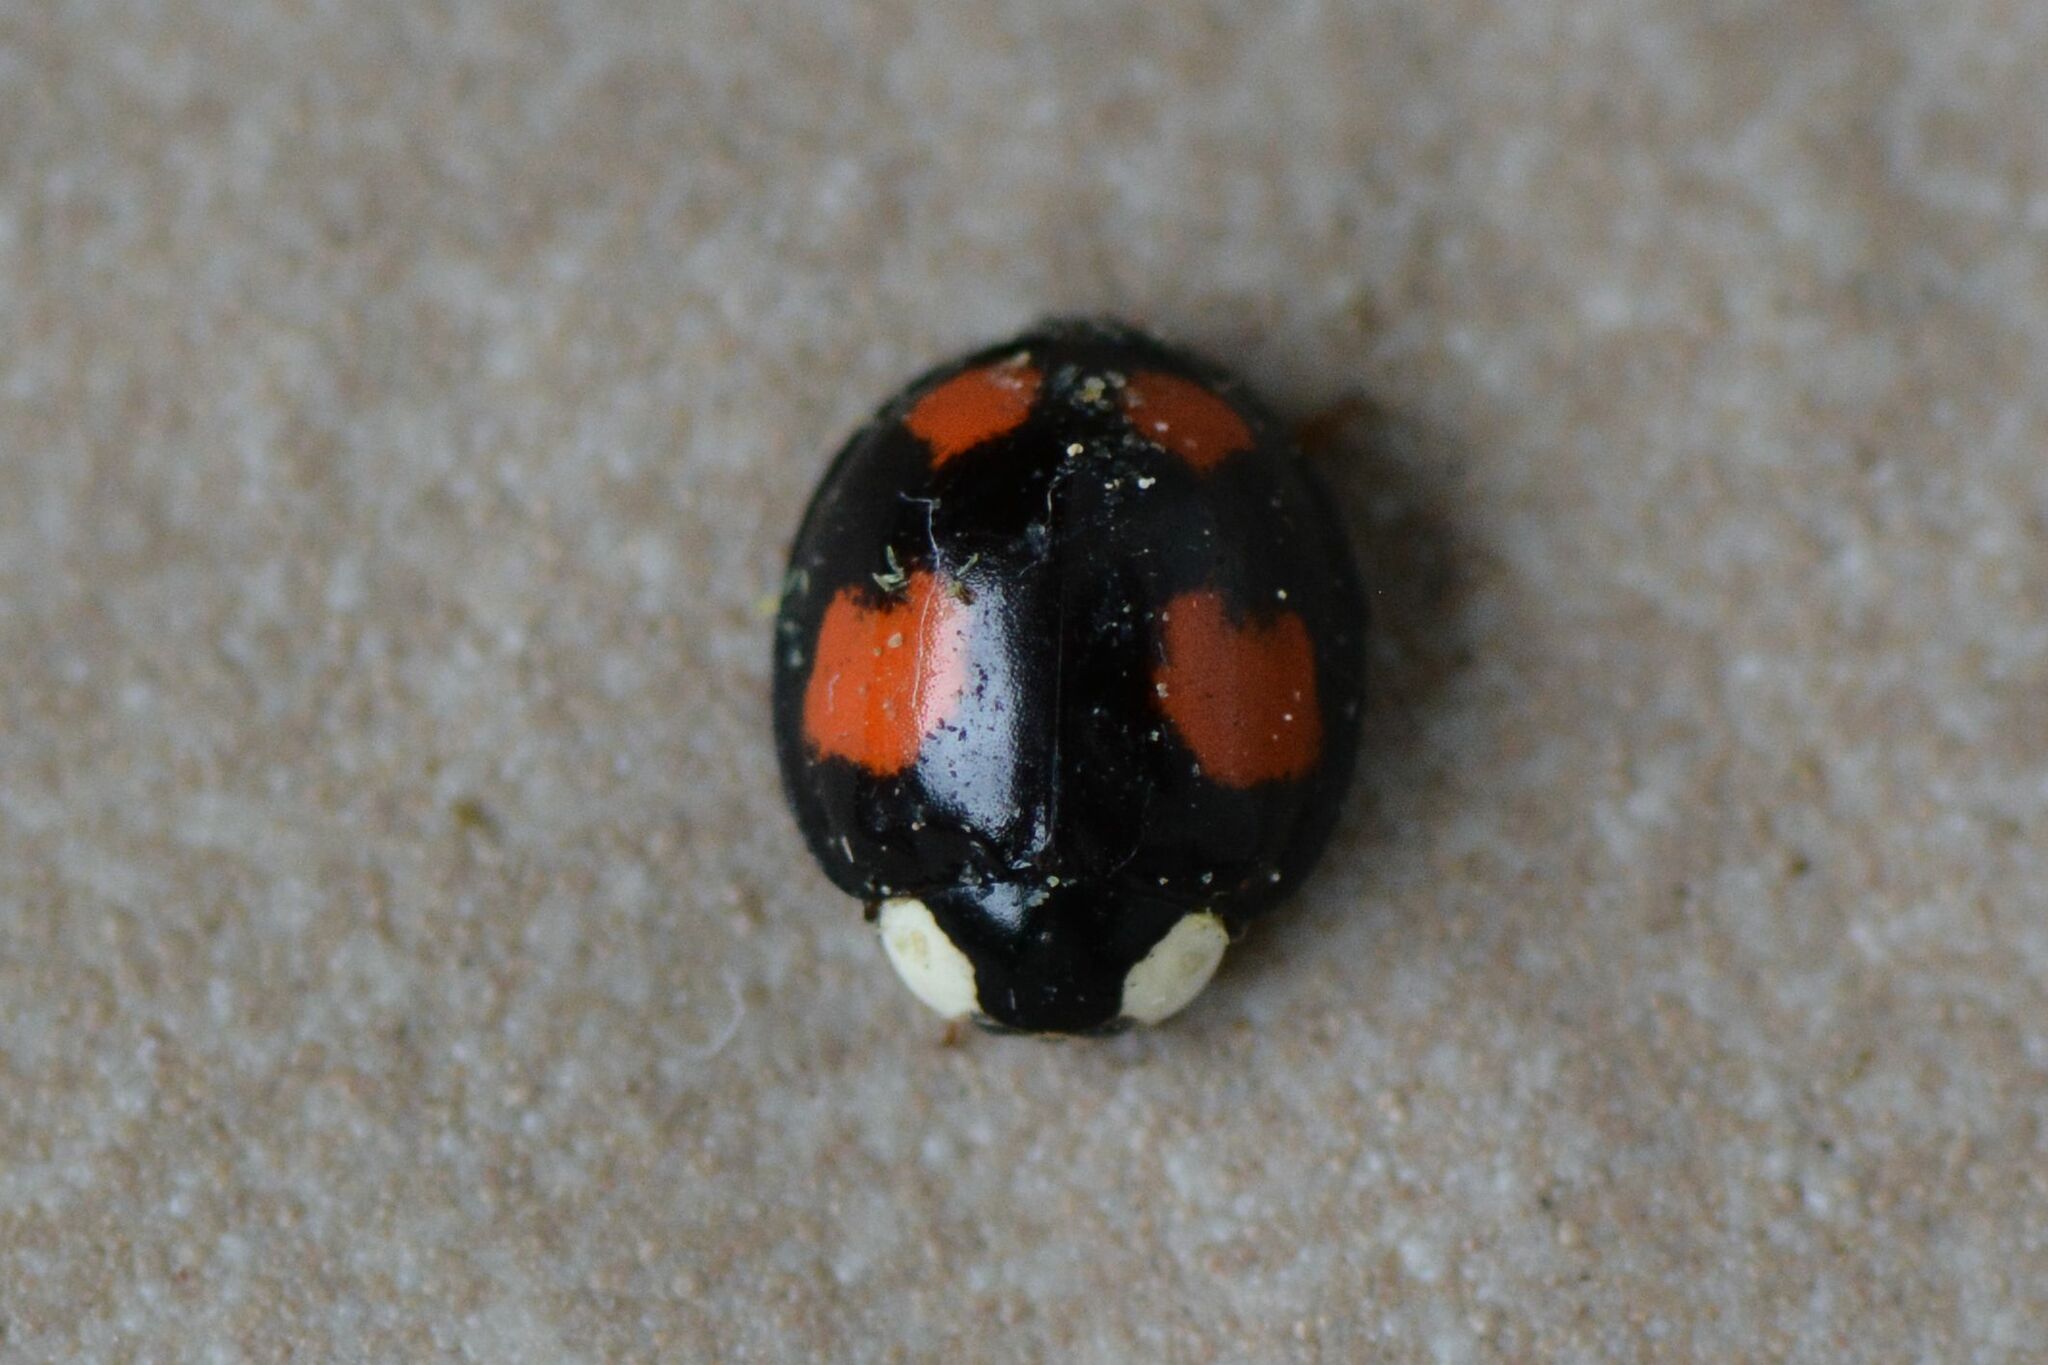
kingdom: Animalia
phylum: Arthropoda
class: Insecta
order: Coleoptera
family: Coccinellidae
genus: Harmonia
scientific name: Harmonia axyridis
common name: Harlequin ladybird
